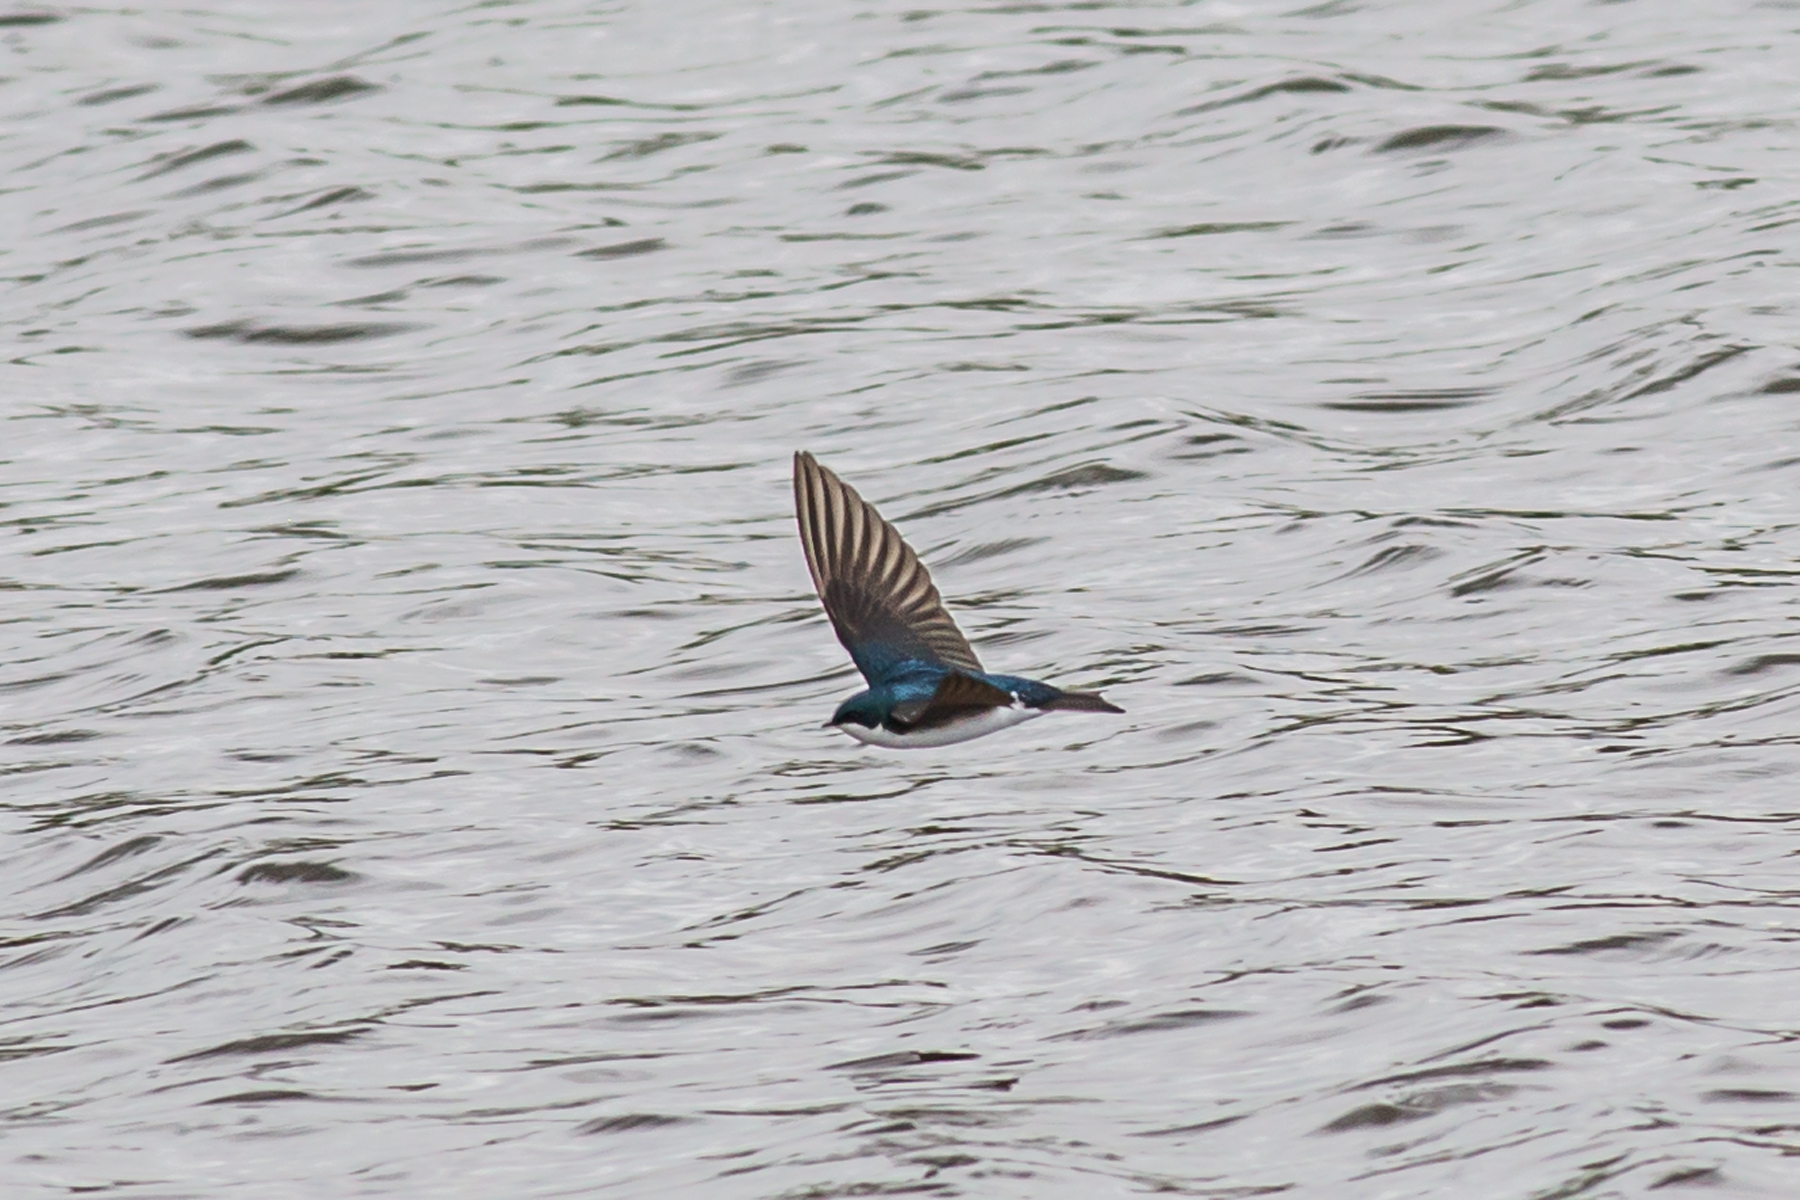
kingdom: Animalia
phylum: Chordata
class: Aves
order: Passeriformes
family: Hirundinidae
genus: Tachycineta
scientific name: Tachycineta bicolor
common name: Tree swallow
